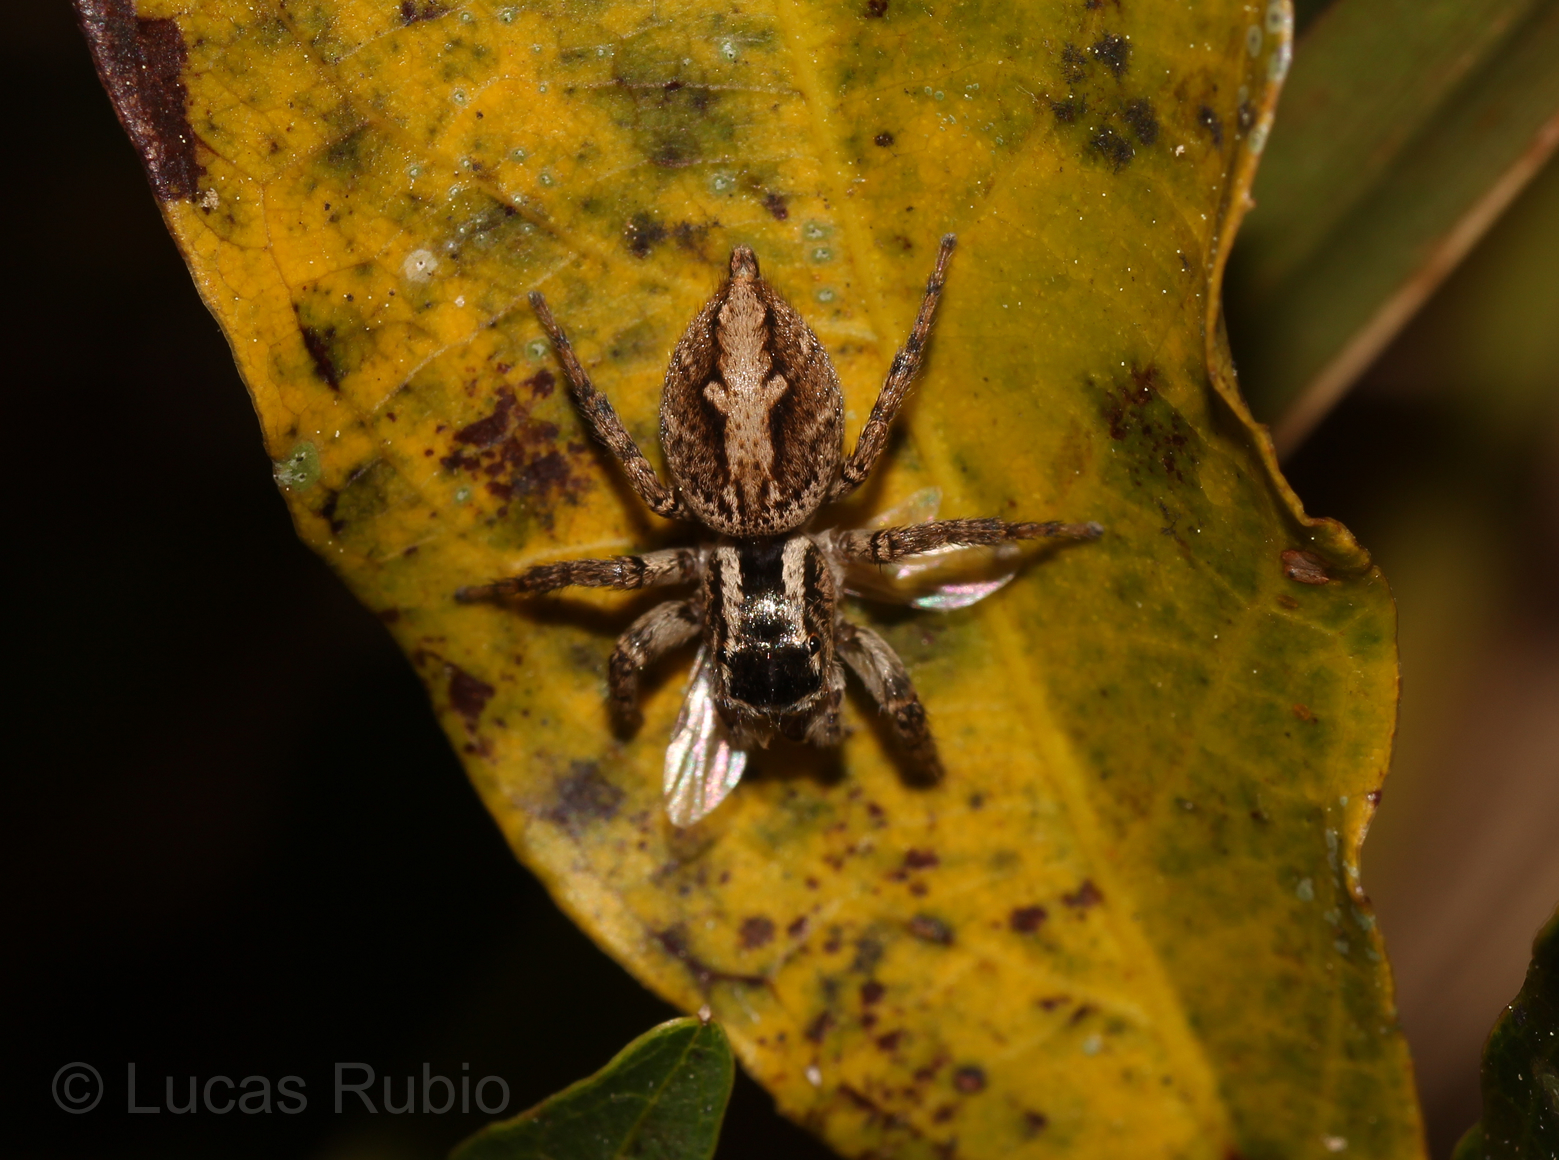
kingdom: Animalia
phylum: Arthropoda
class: Arachnida
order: Araneae
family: Salticidae
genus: Aphirape
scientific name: Aphirape
